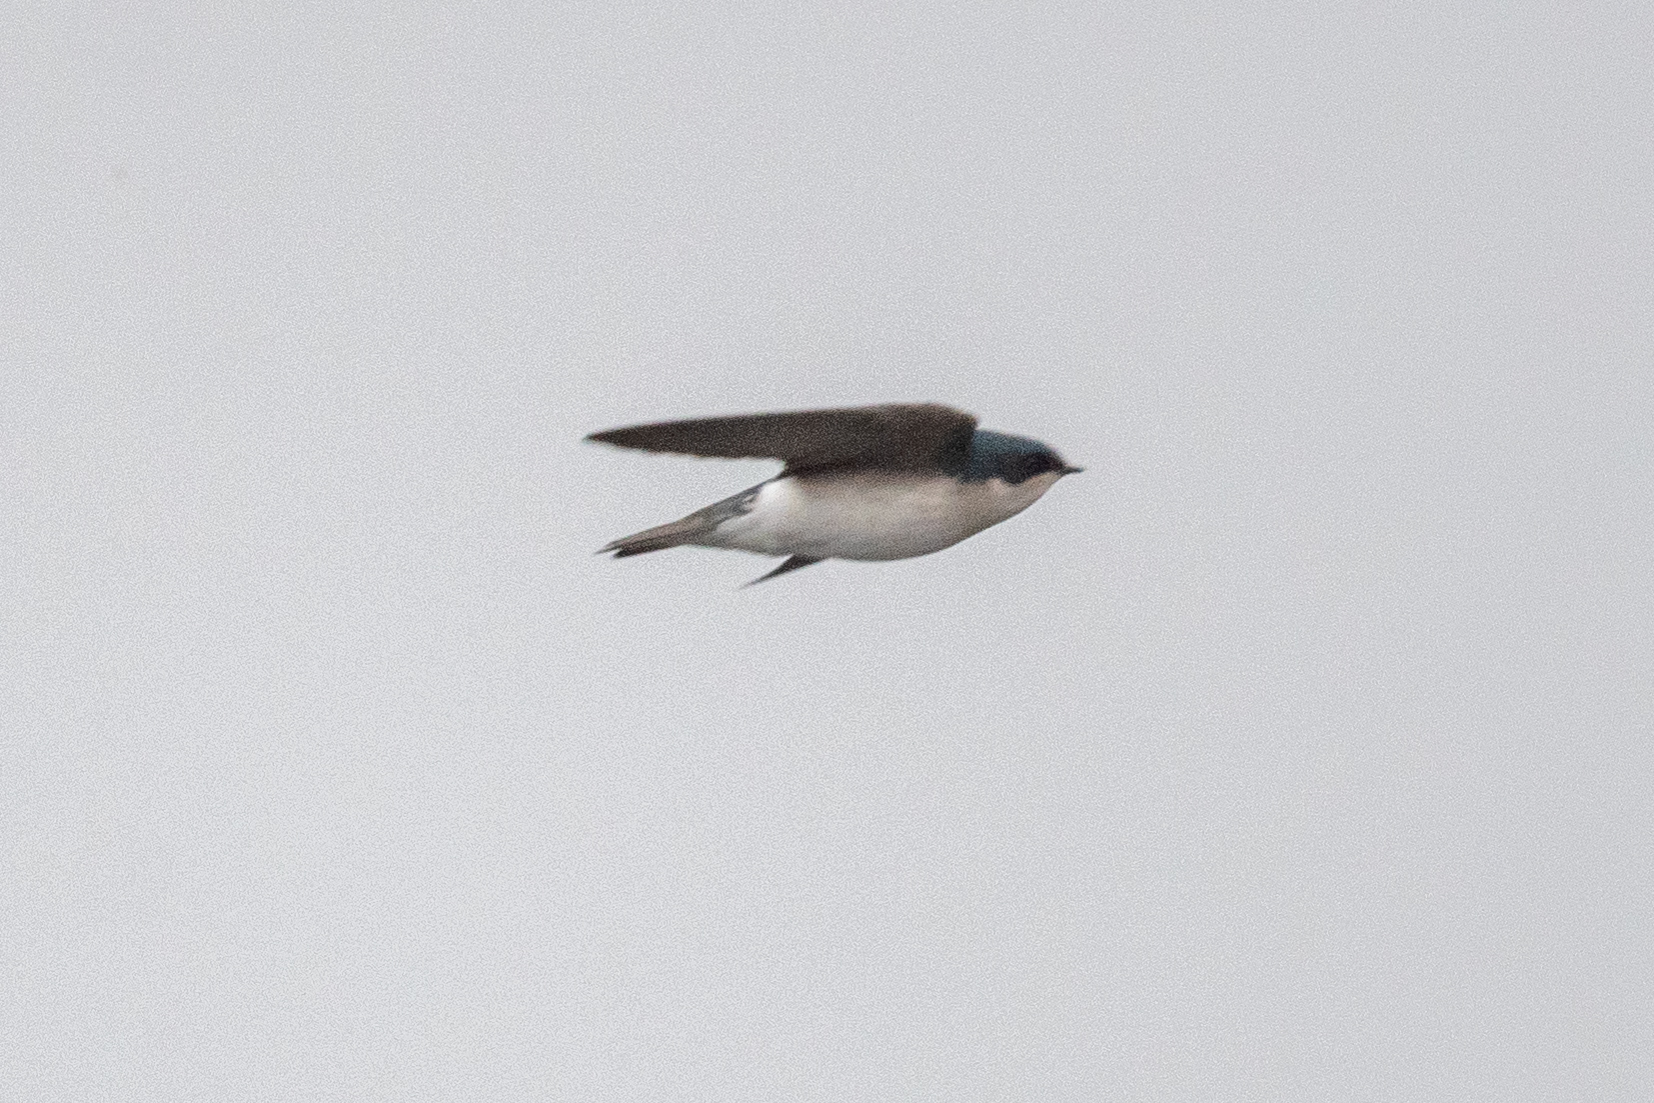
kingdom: Animalia
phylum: Chordata
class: Aves
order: Passeriformes
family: Hirundinidae
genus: Tachycineta
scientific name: Tachycineta bicolor
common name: Tree swallow
